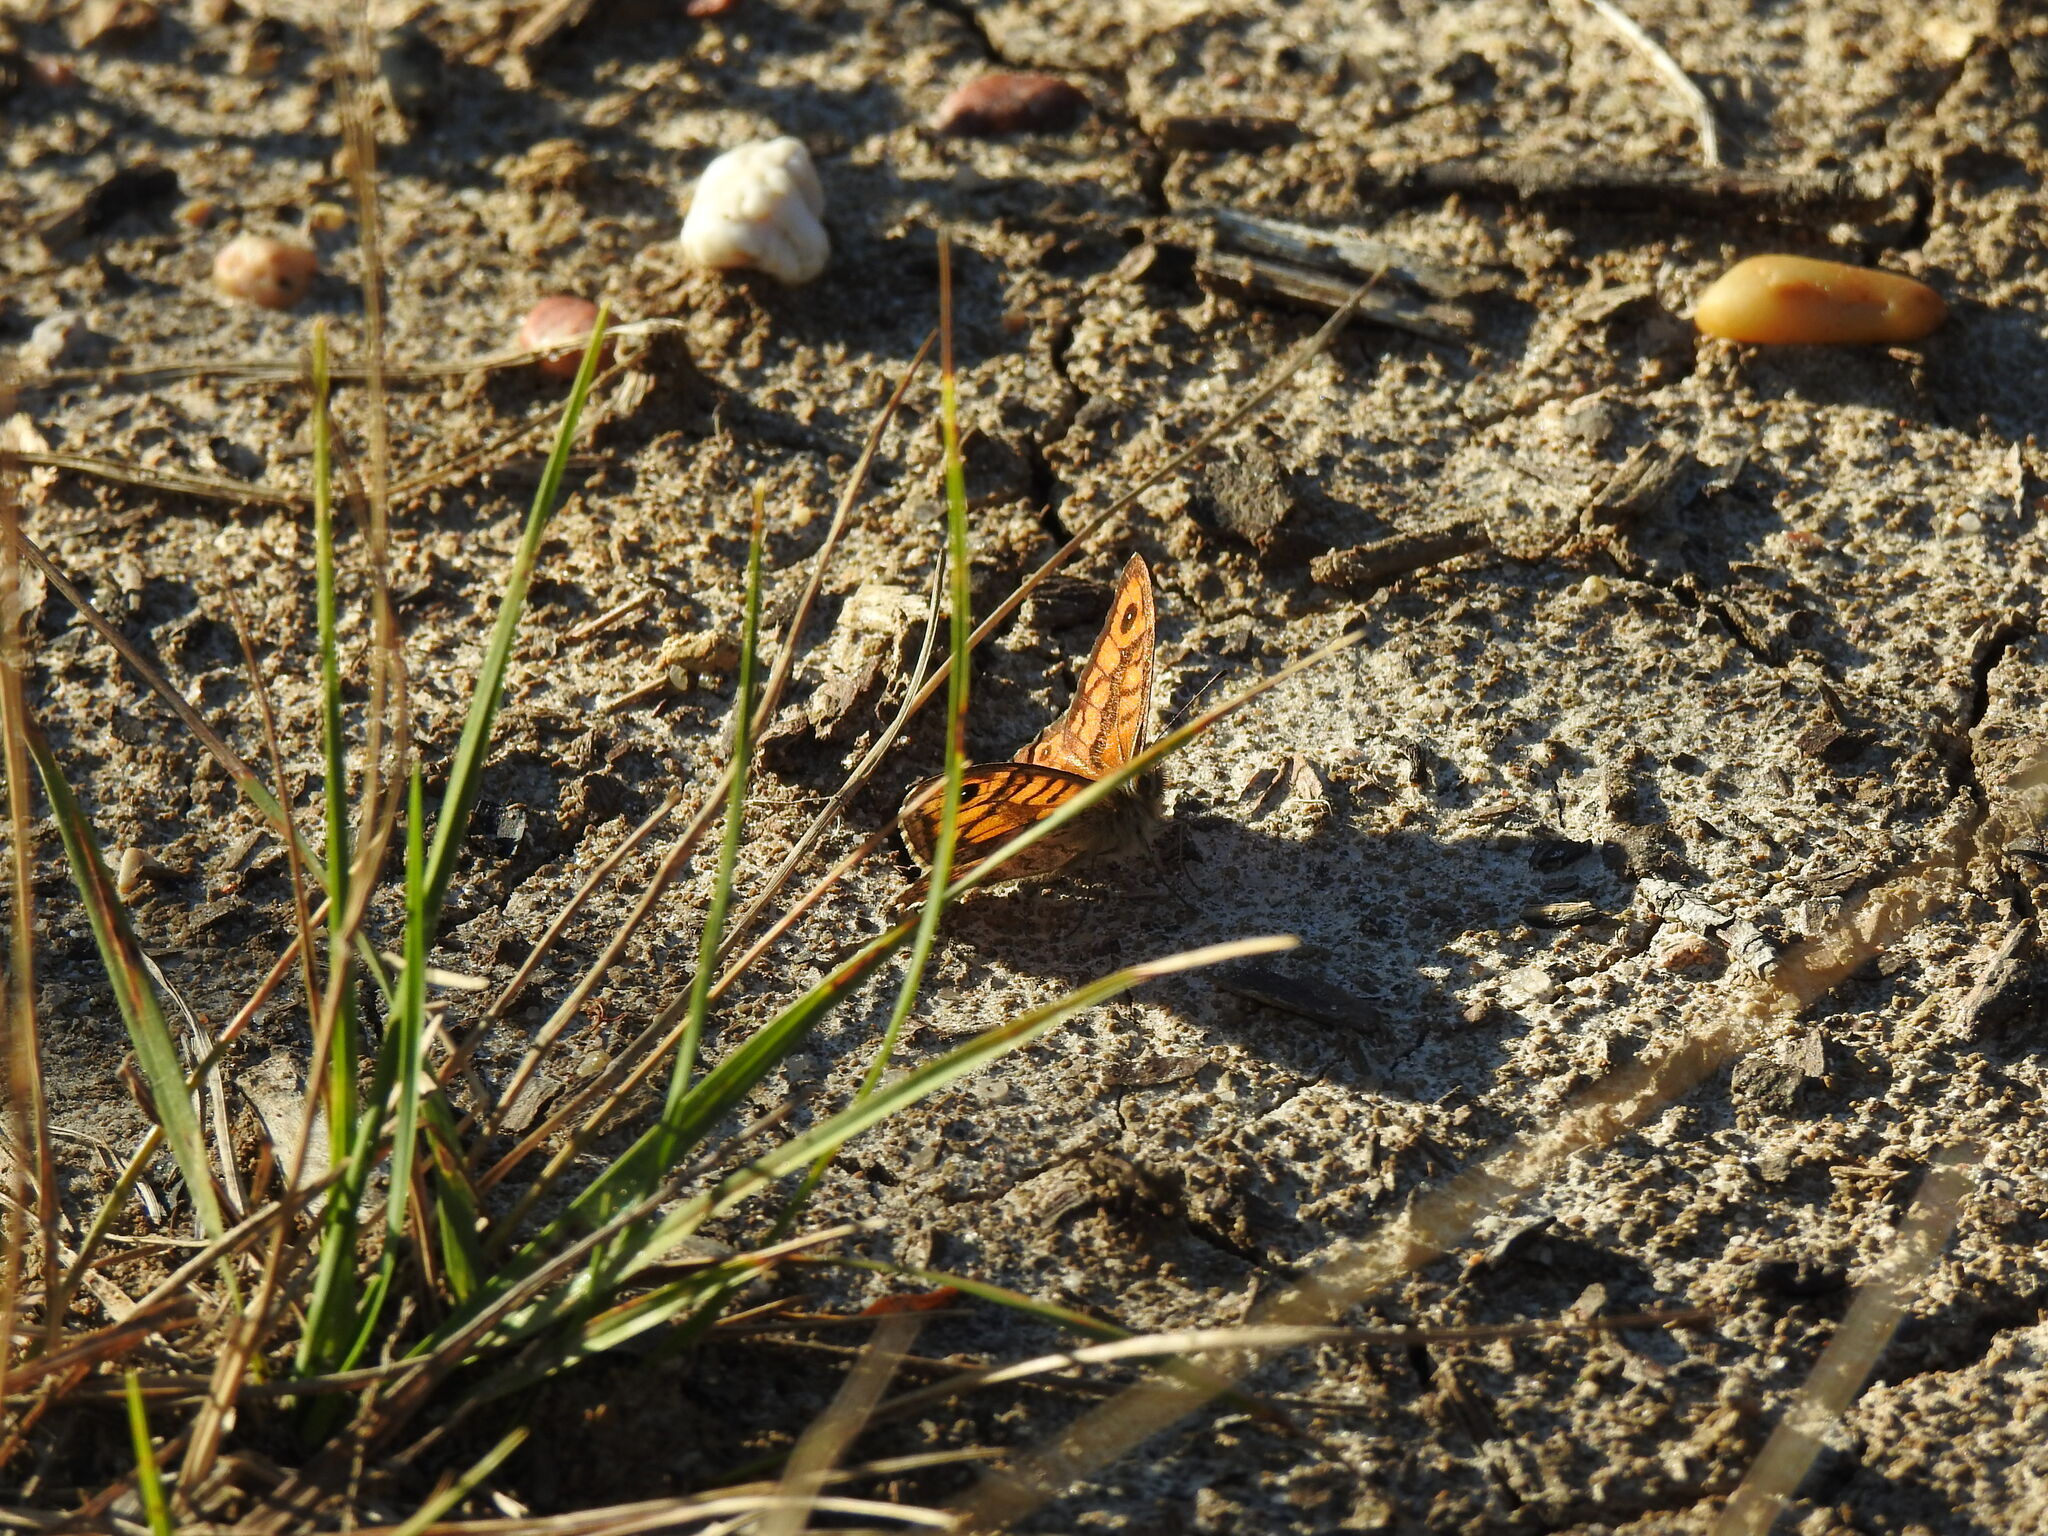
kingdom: Animalia
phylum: Arthropoda
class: Insecta
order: Lepidoptera
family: Nymphalidae
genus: Pararge
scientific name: Pararge Lasiommata megera
